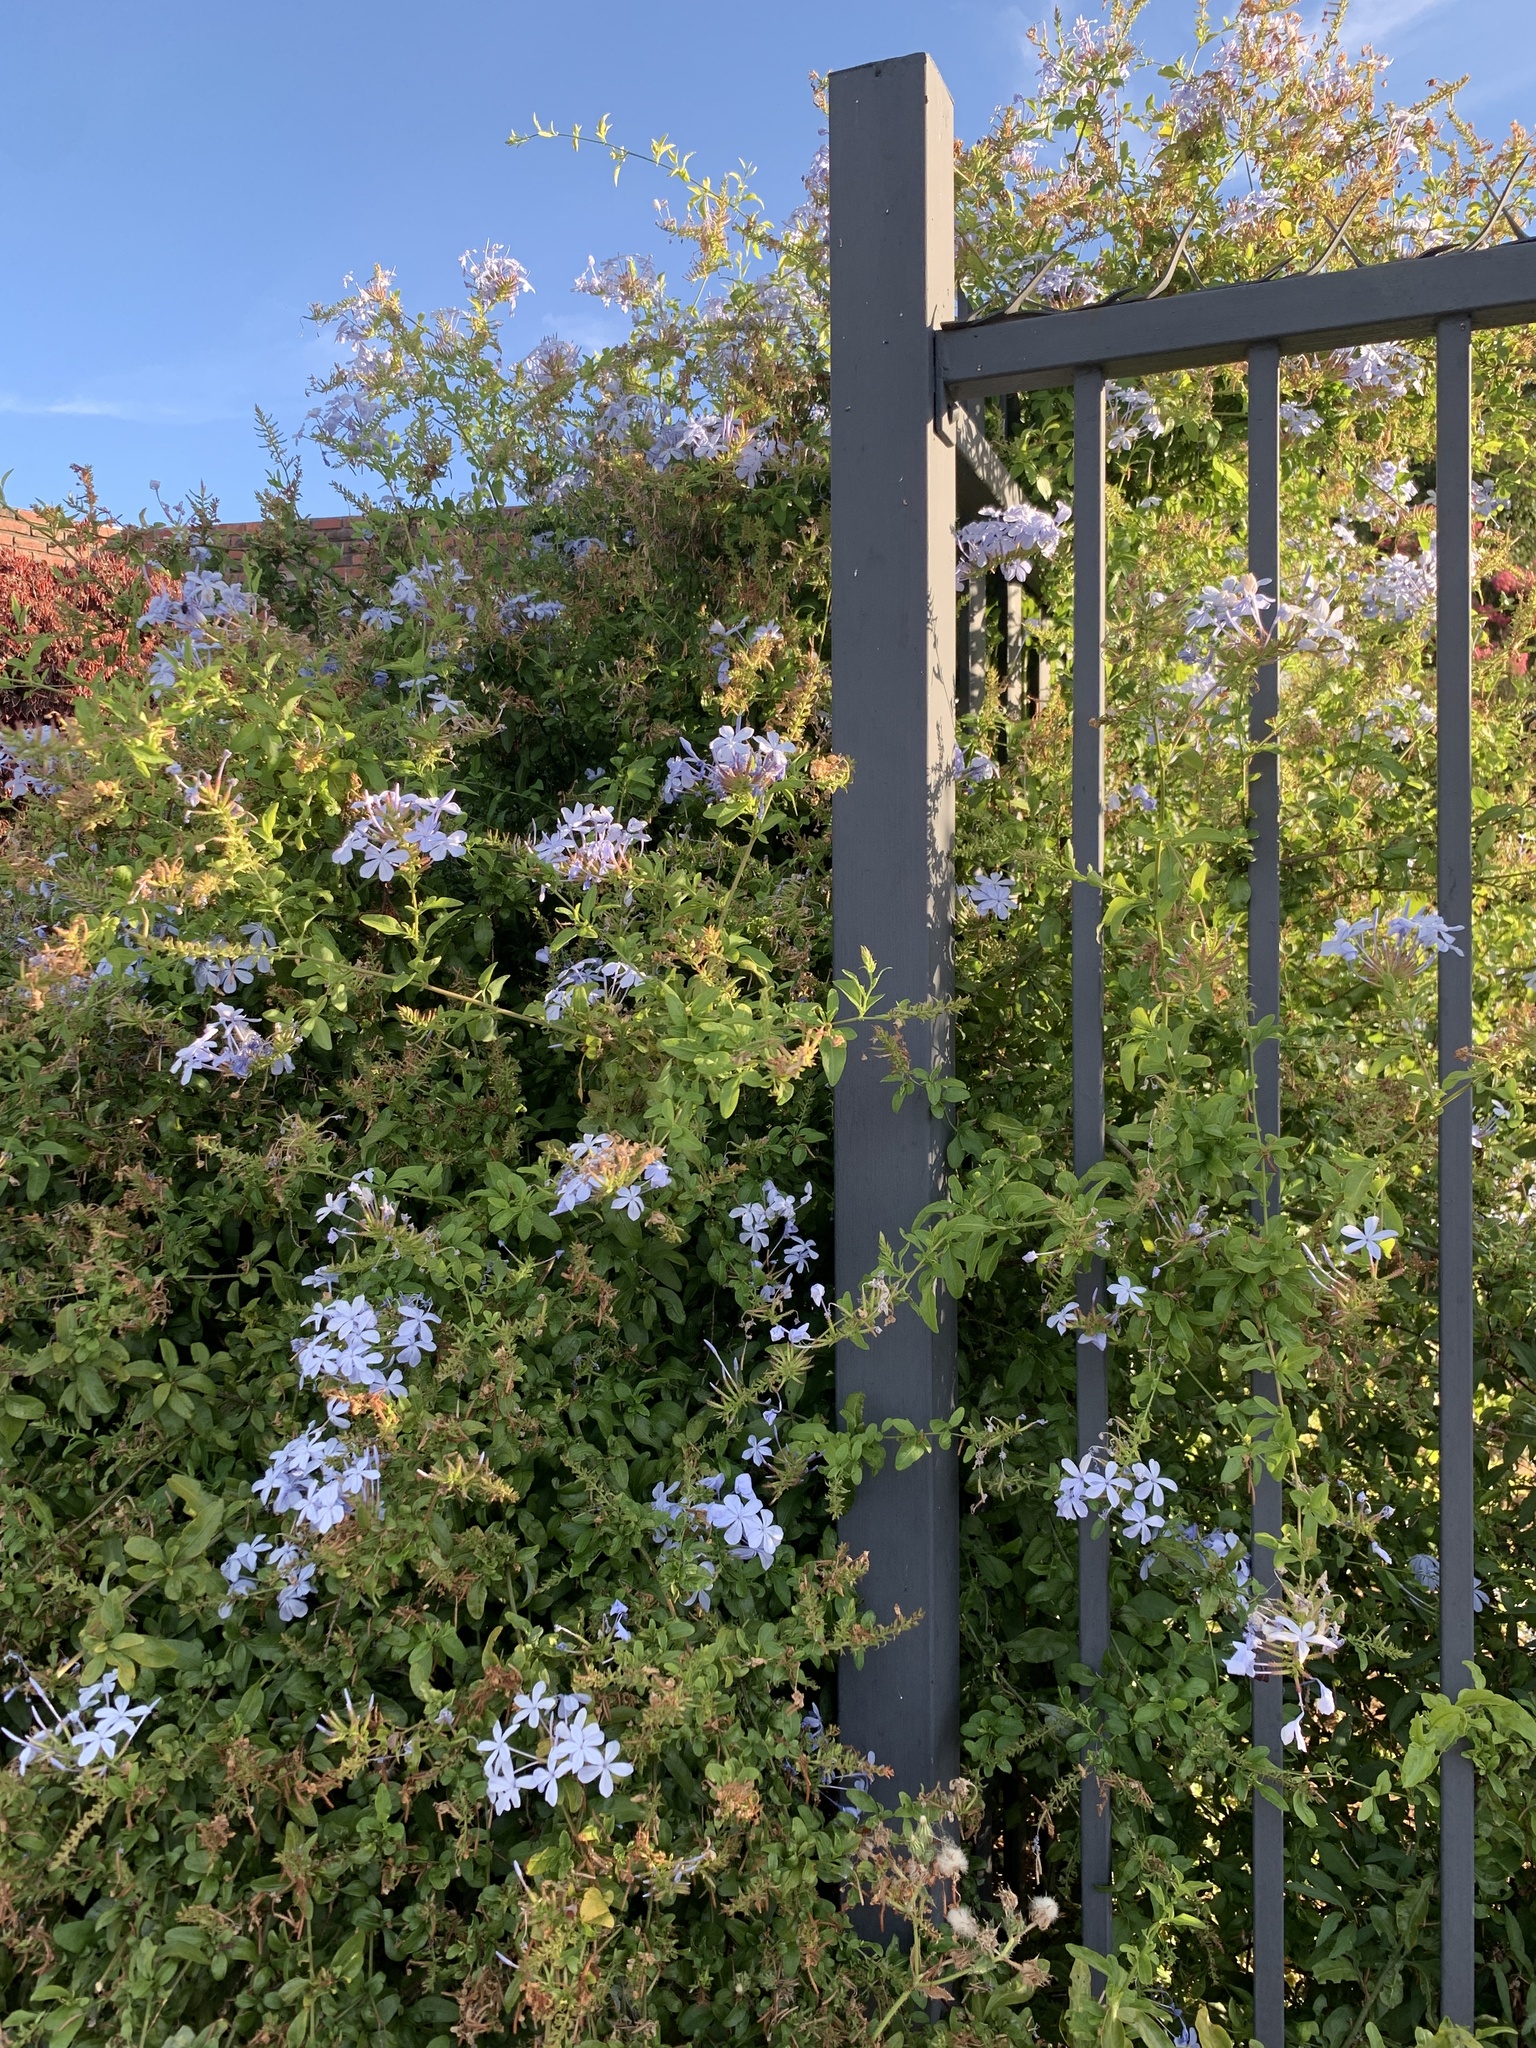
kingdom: Plantae
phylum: Tracheophyta
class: Magnoliopsida
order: Caryophyllales
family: Plumbaginaceae
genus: Plumbago
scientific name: Plumbago auriculata
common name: Cape leadwort
